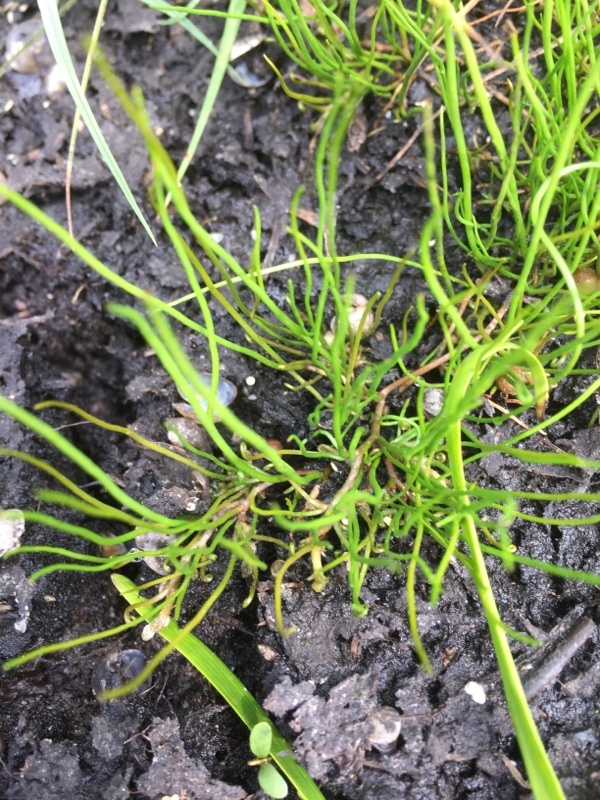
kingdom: Plantae
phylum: Tracheophyta
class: Polypodiopsida
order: Salviniales
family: Marsileaceae
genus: Pilularia
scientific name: Pilularia globulifera
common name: Pillwort
